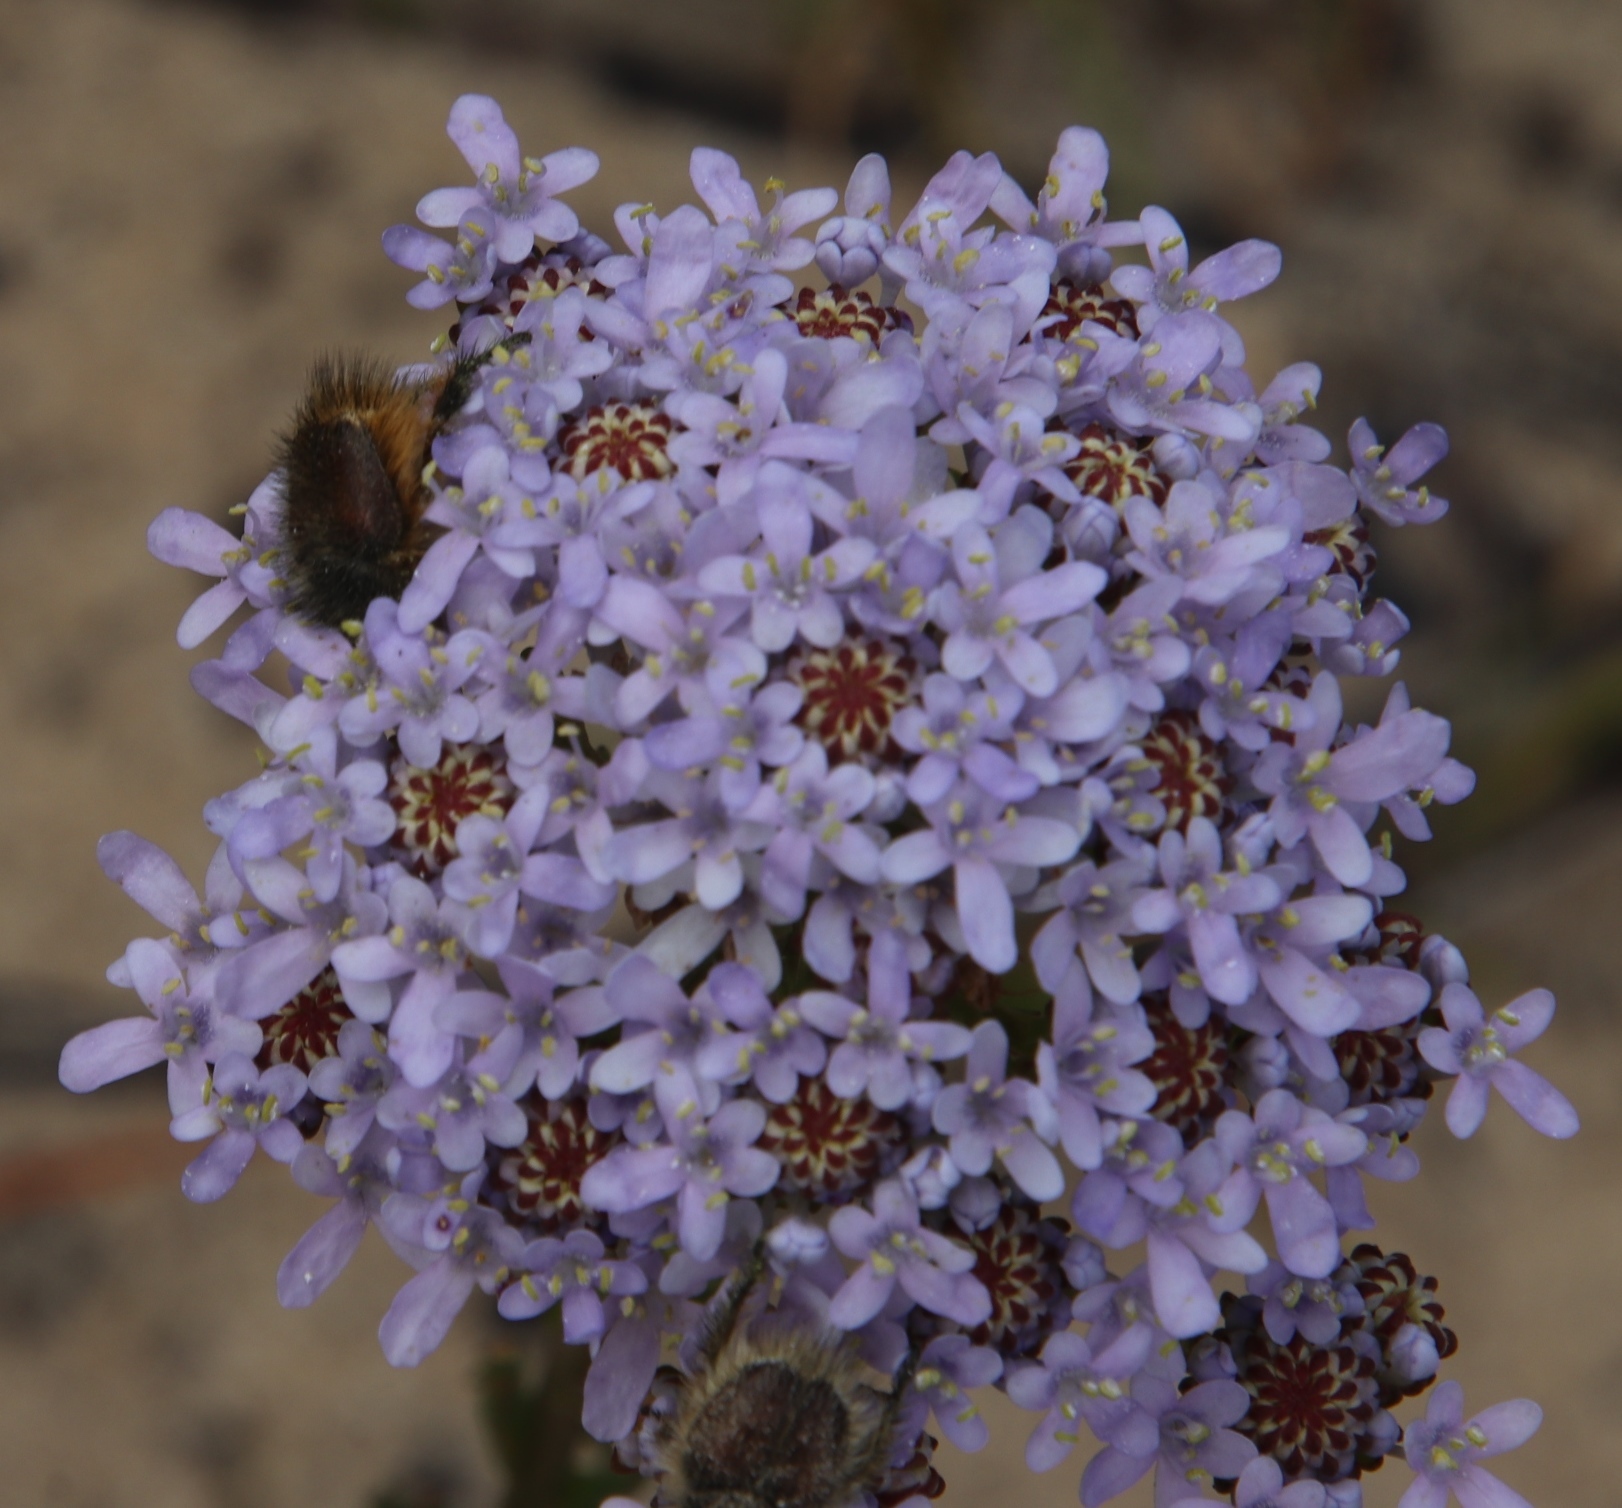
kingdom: Plantae
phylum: Tracheophyta
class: Magnoliopsida
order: Lamiales
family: Scrophulariaceae
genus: Pseudoselago
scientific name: Pseudoselago spuria
